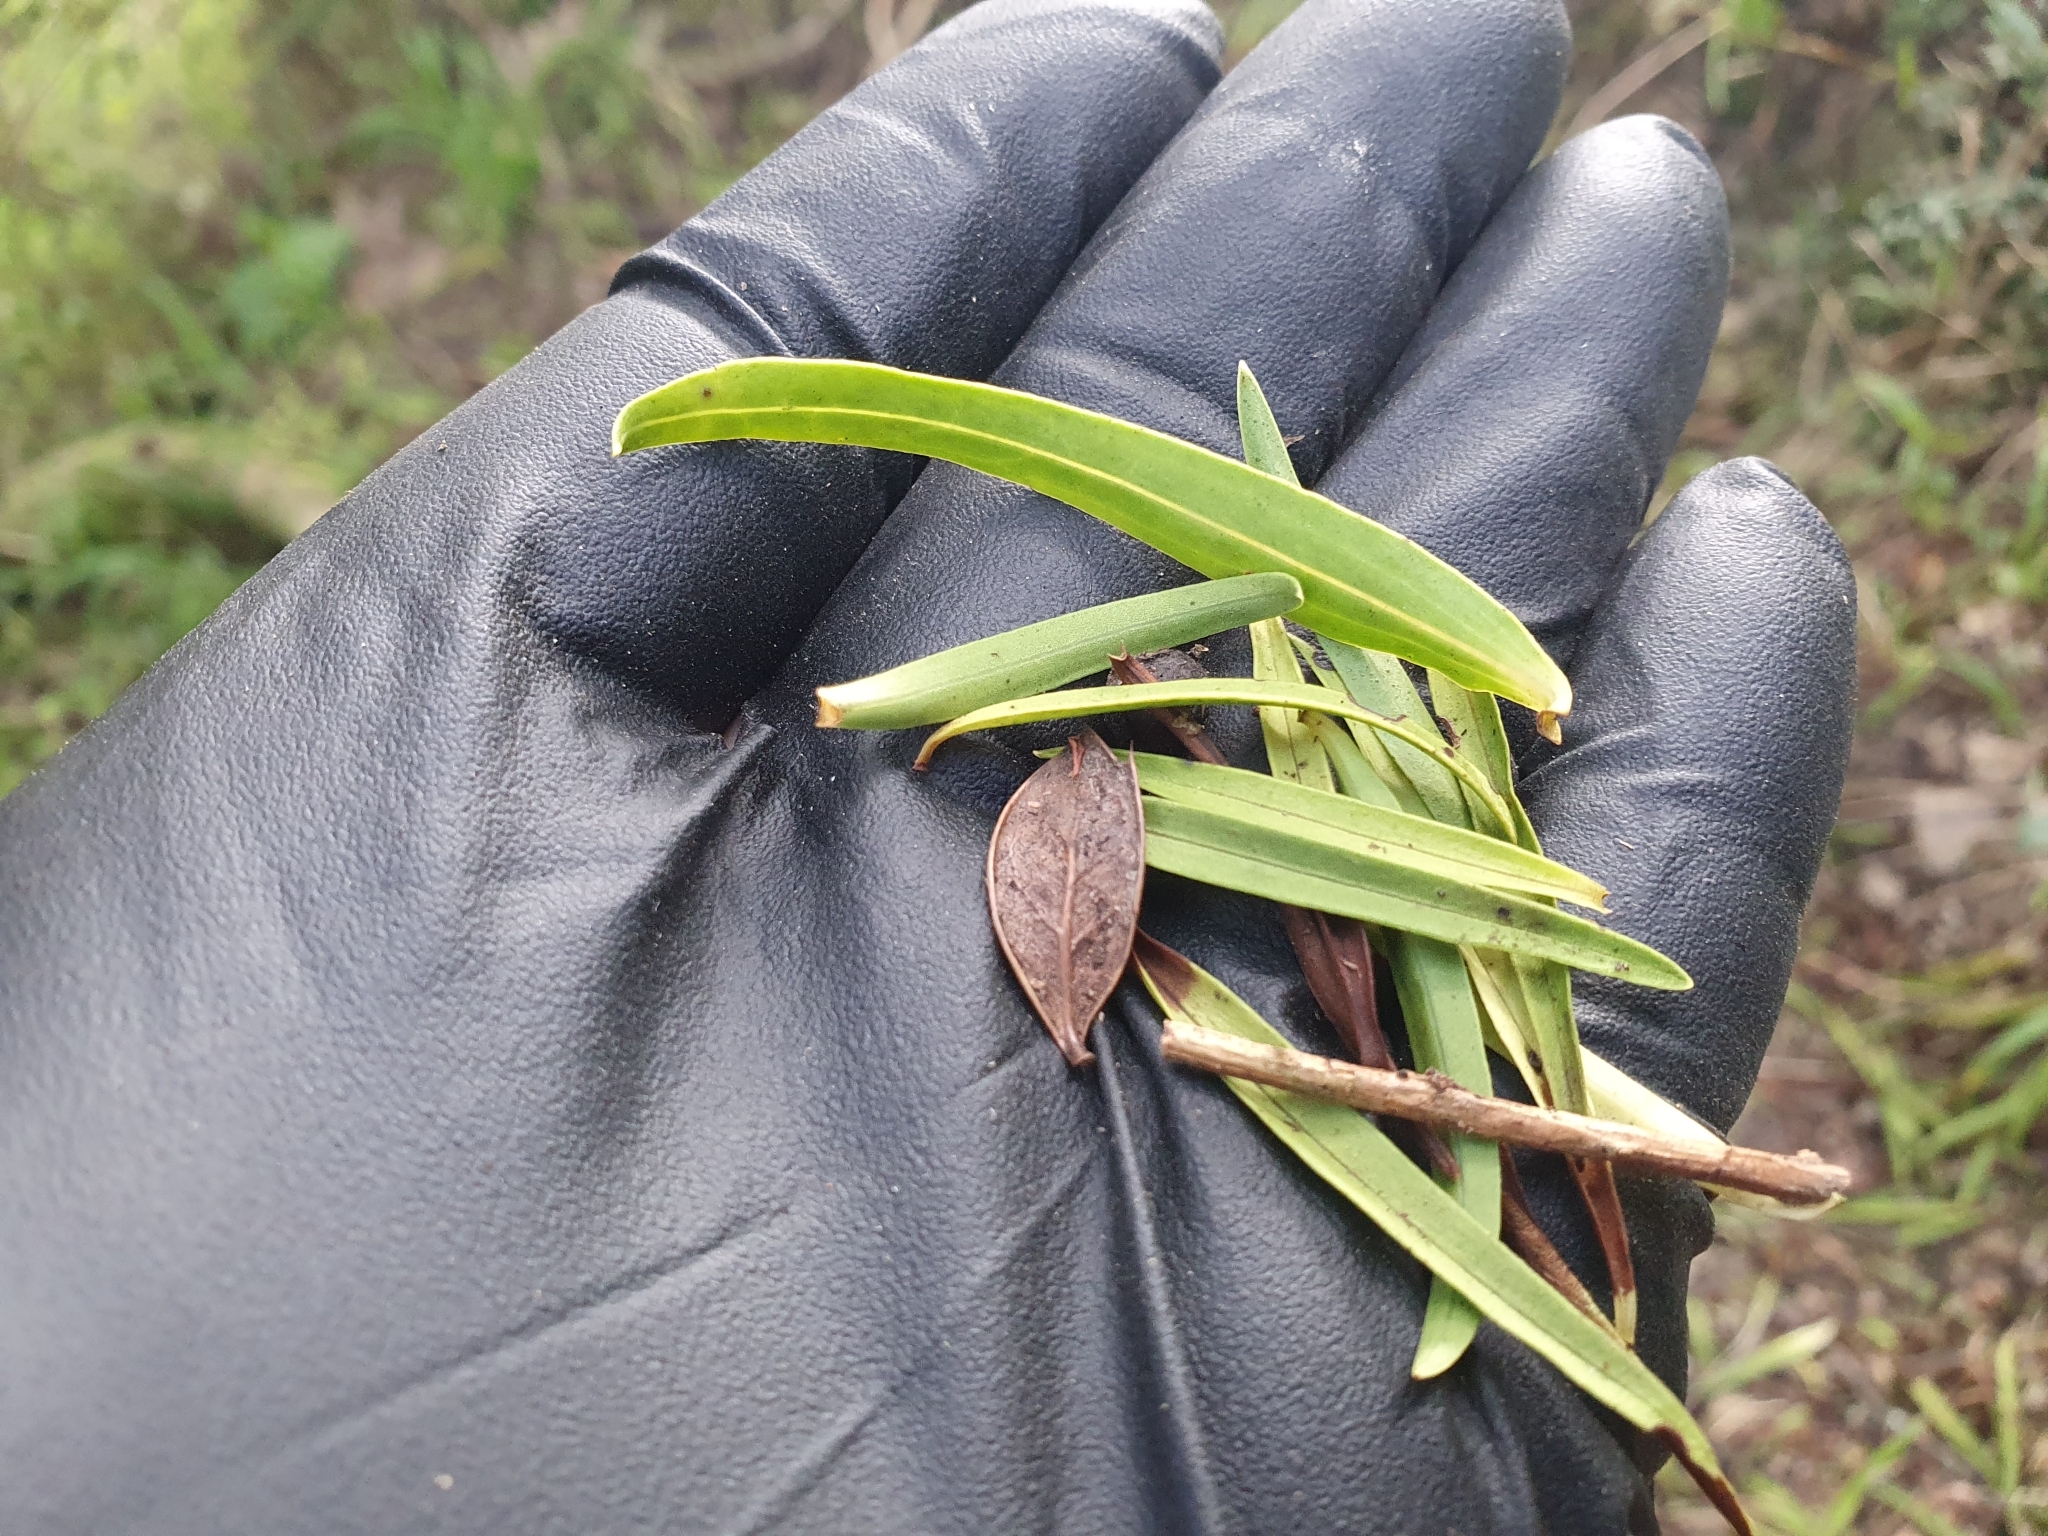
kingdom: Plantae
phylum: Tracheophyta
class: Pinopsida
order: Pinales
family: Podocarpaceae
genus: Prumnopitys
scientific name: Prumnopitys taxifolia
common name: Matai
